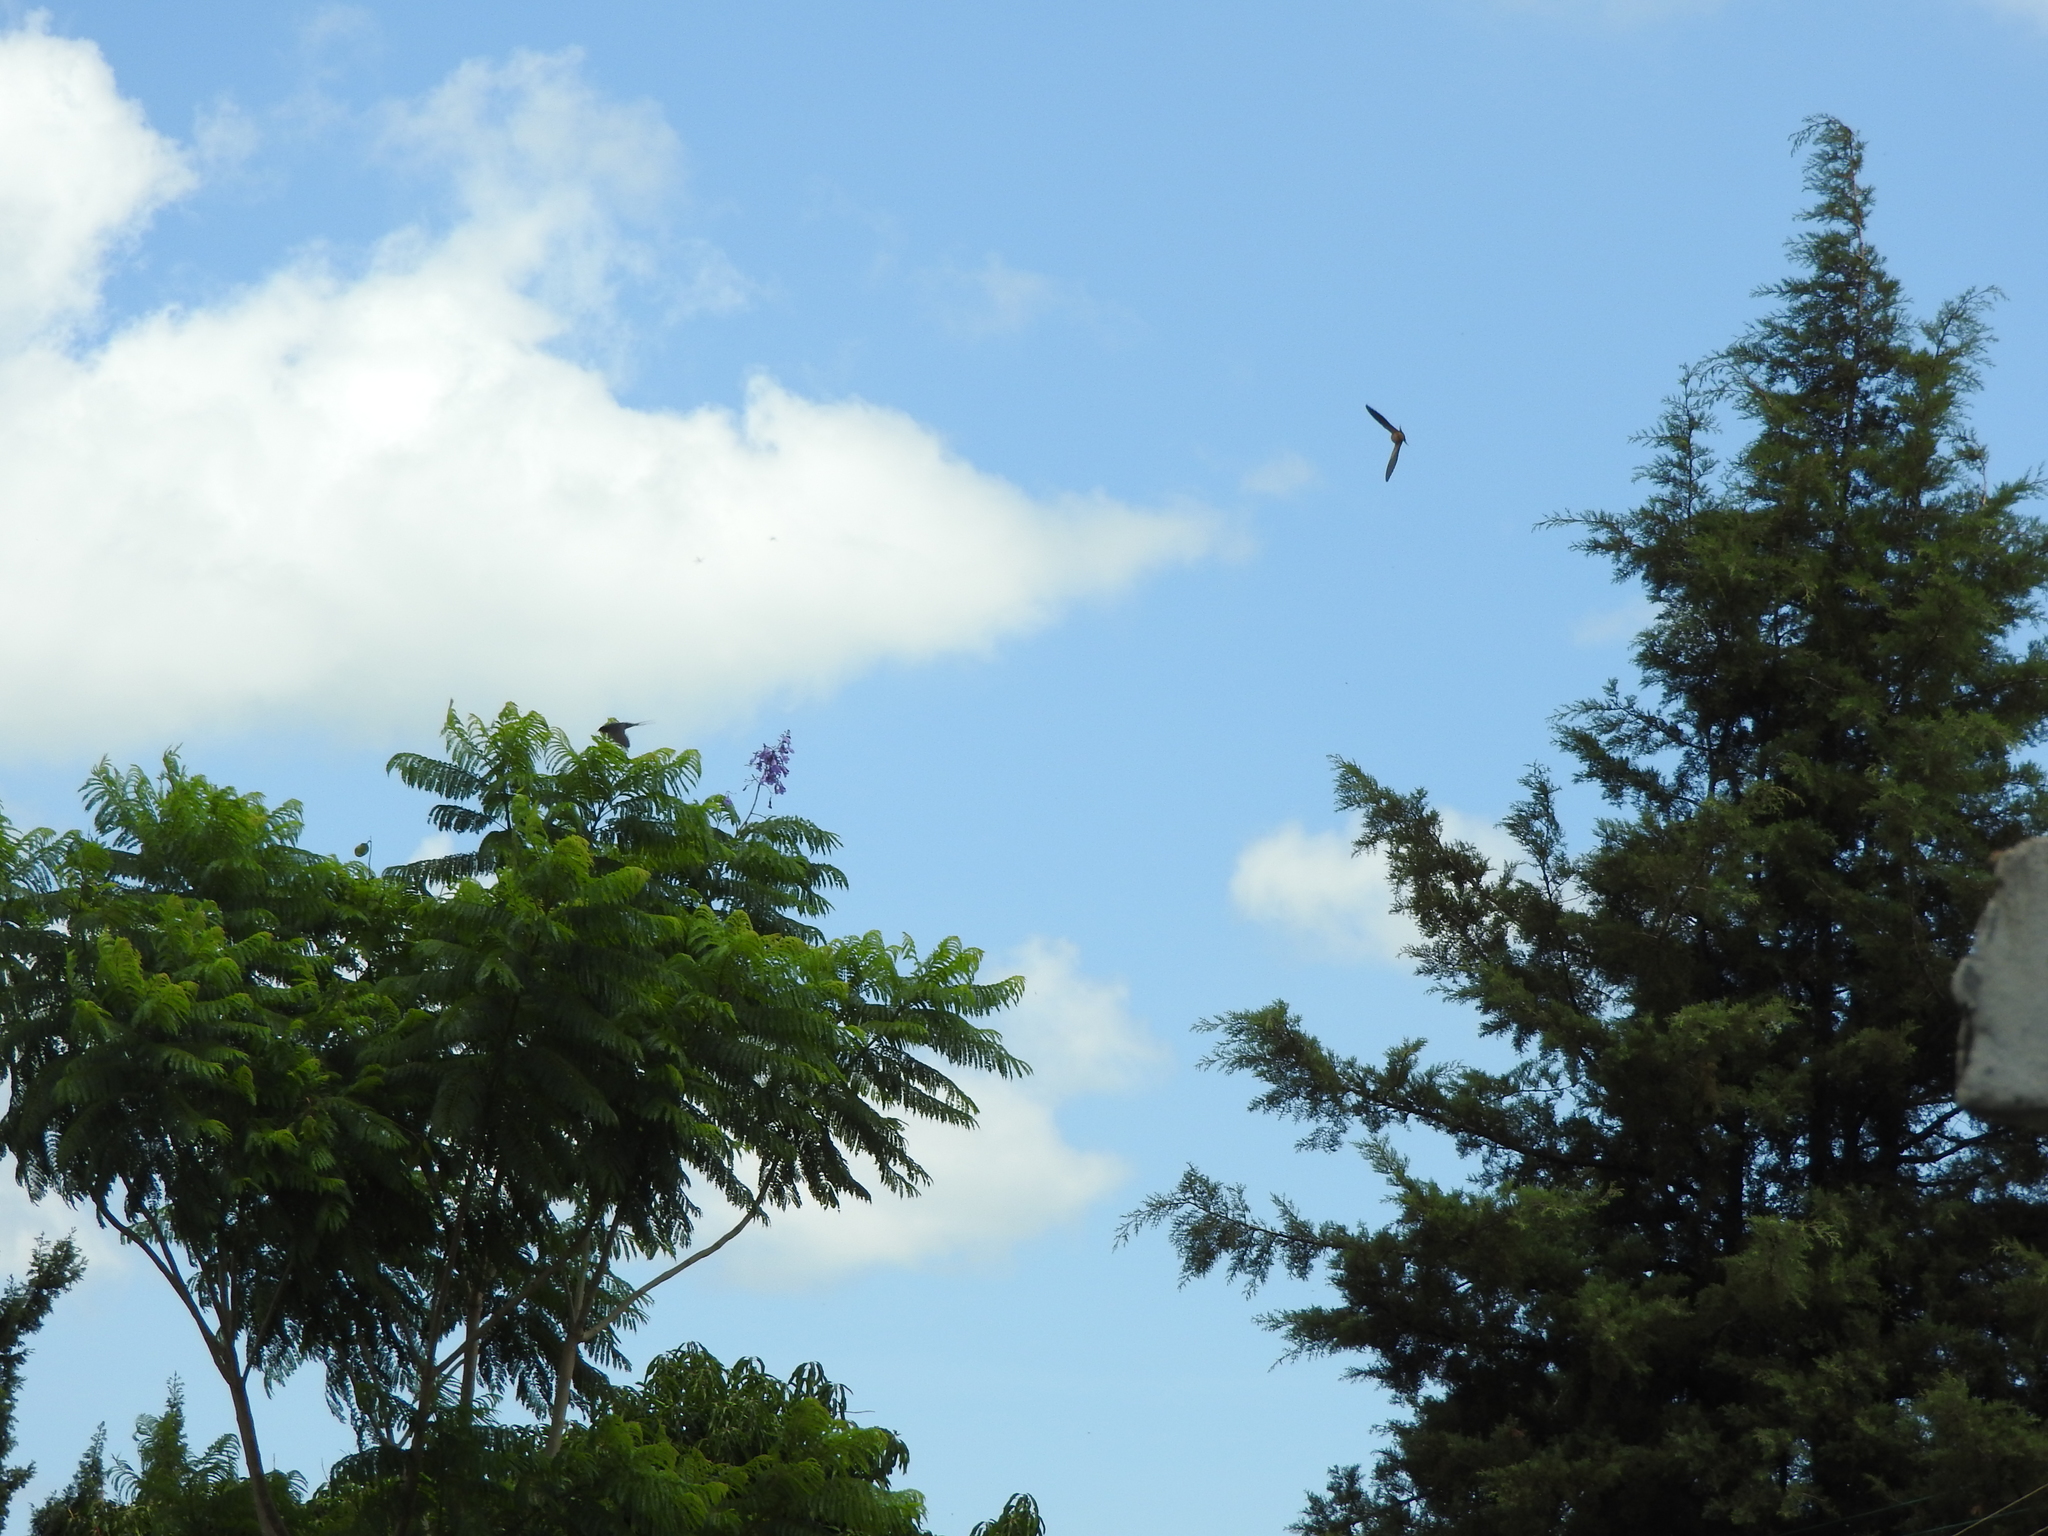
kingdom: Animalia
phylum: Chordata
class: Aves
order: Passeriformes
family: Hirundinidae
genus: Hirundo
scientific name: Hirundo rustica
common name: Barn swallow
